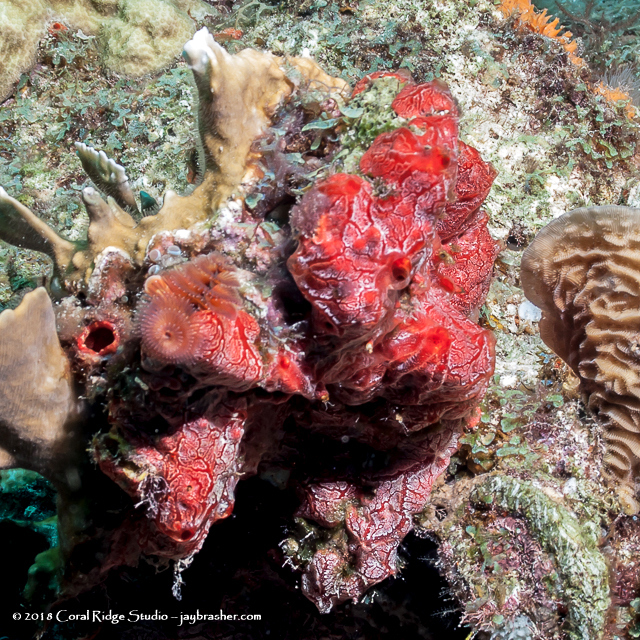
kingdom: Animalia
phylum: Porifera
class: Demospongiae
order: Poecilosclerida
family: Crambeidae
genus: Monanchora
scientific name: Monanchora arbuscula
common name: Red-white marbled sponge
